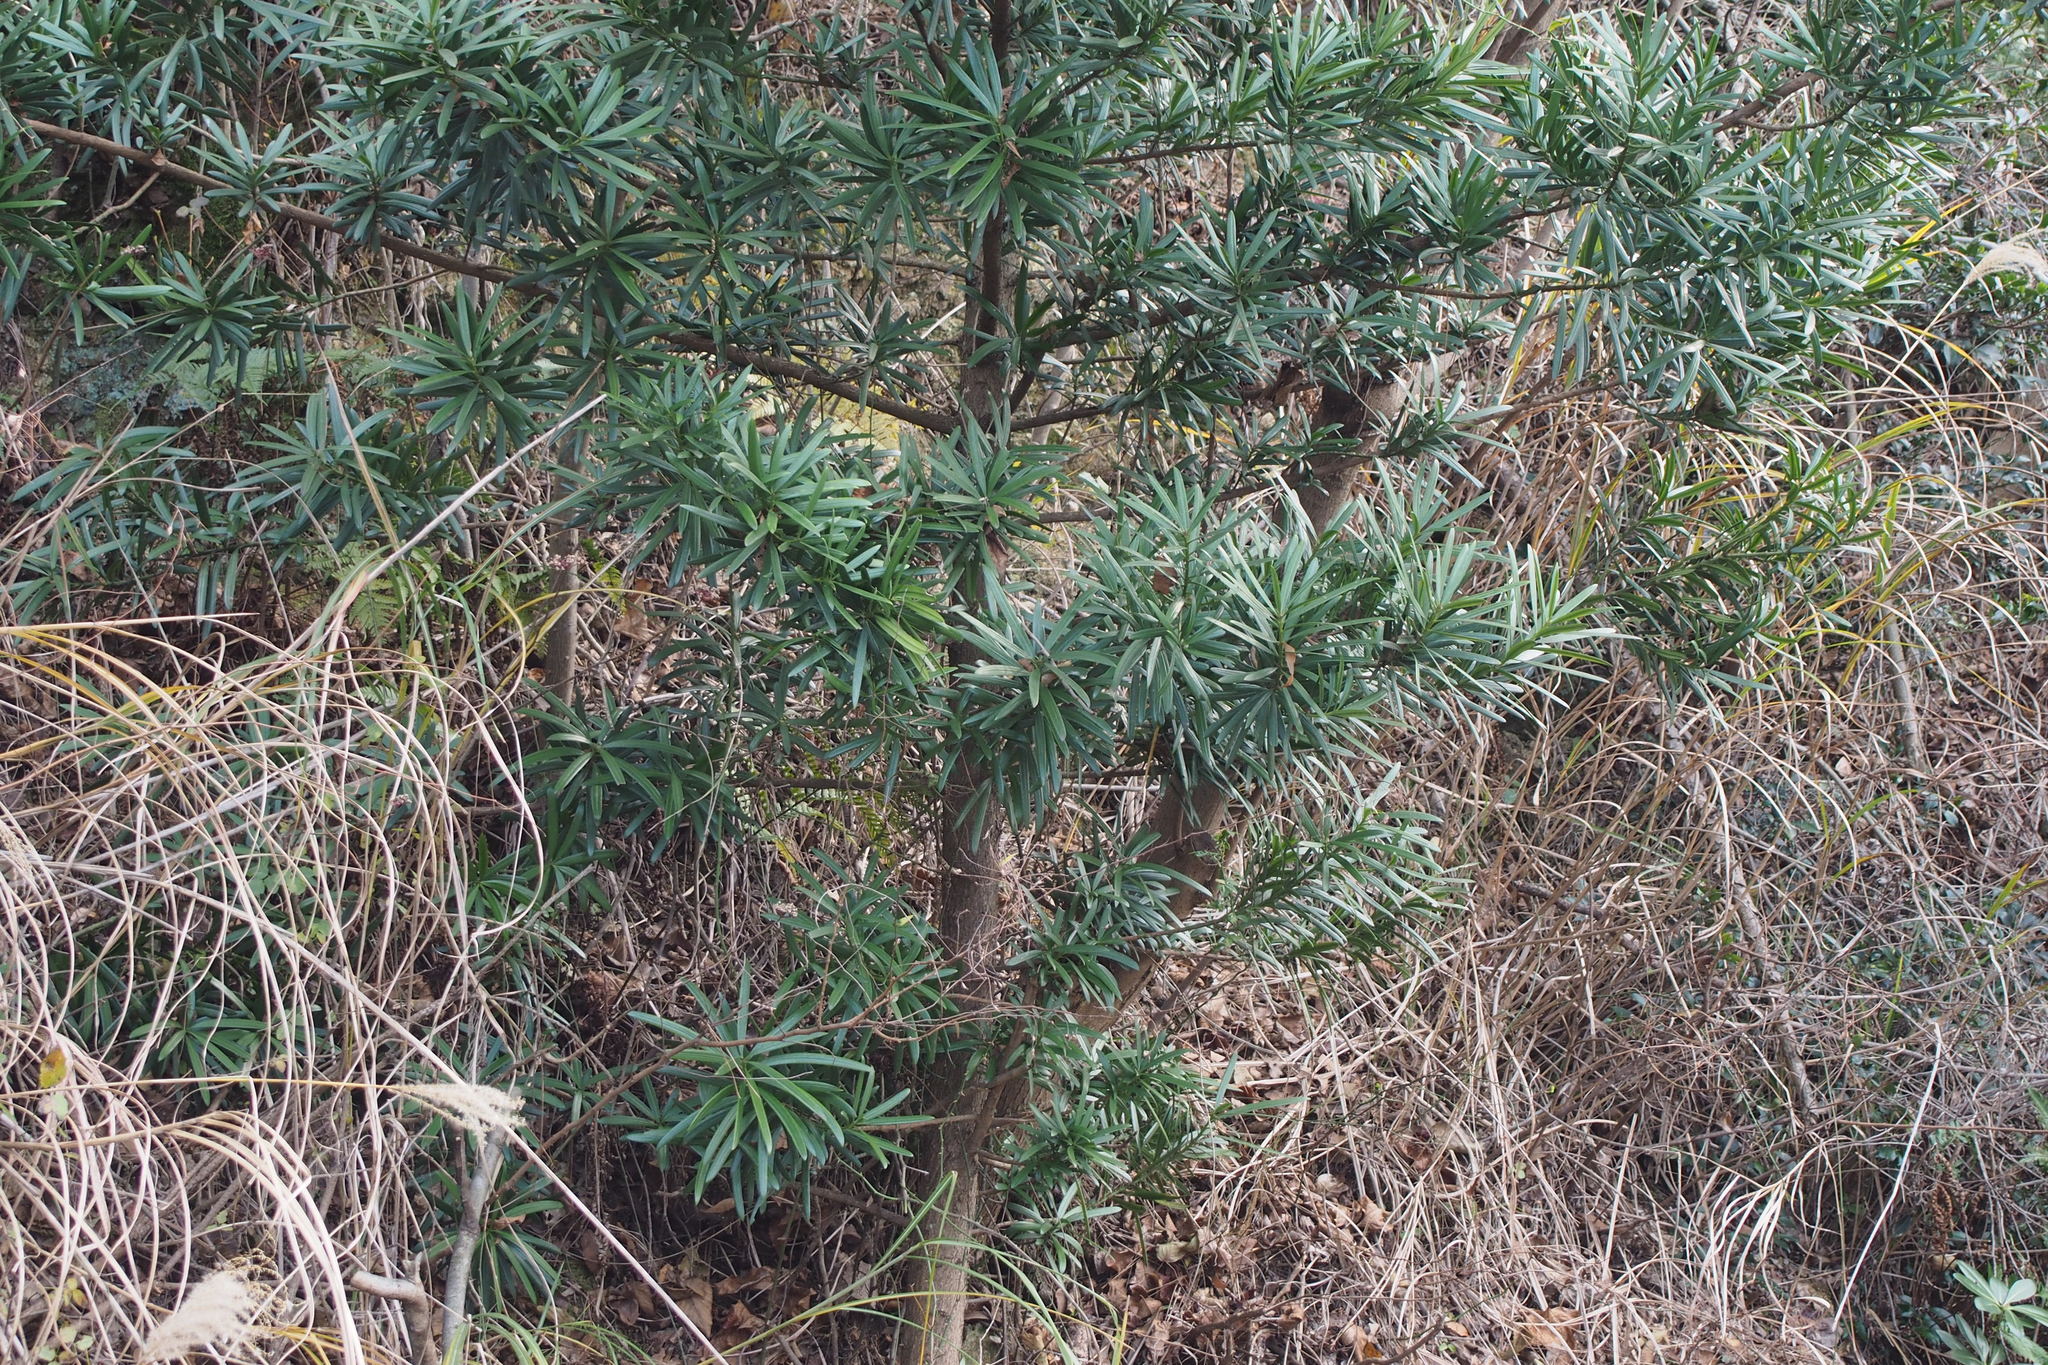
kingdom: Plantae
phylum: Tracheophyta
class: Pinopsida
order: Pinales
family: Podocarpaceae
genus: Podocarpus
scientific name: Podocarpus macrophyllus
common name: Japanese yew
